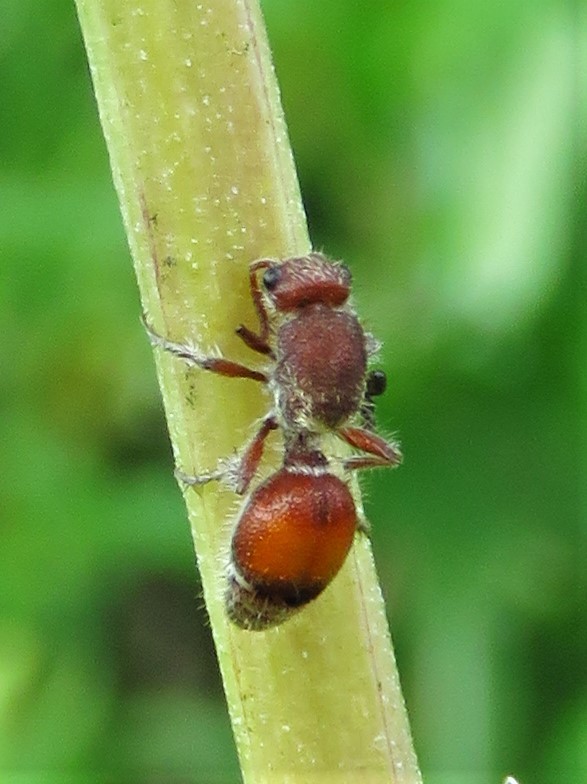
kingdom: Animalia
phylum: Arthropoda
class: Insecta
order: Hymenoptera
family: Mutillidae
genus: Dasymutilla
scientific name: Dasymutilla birkmani
